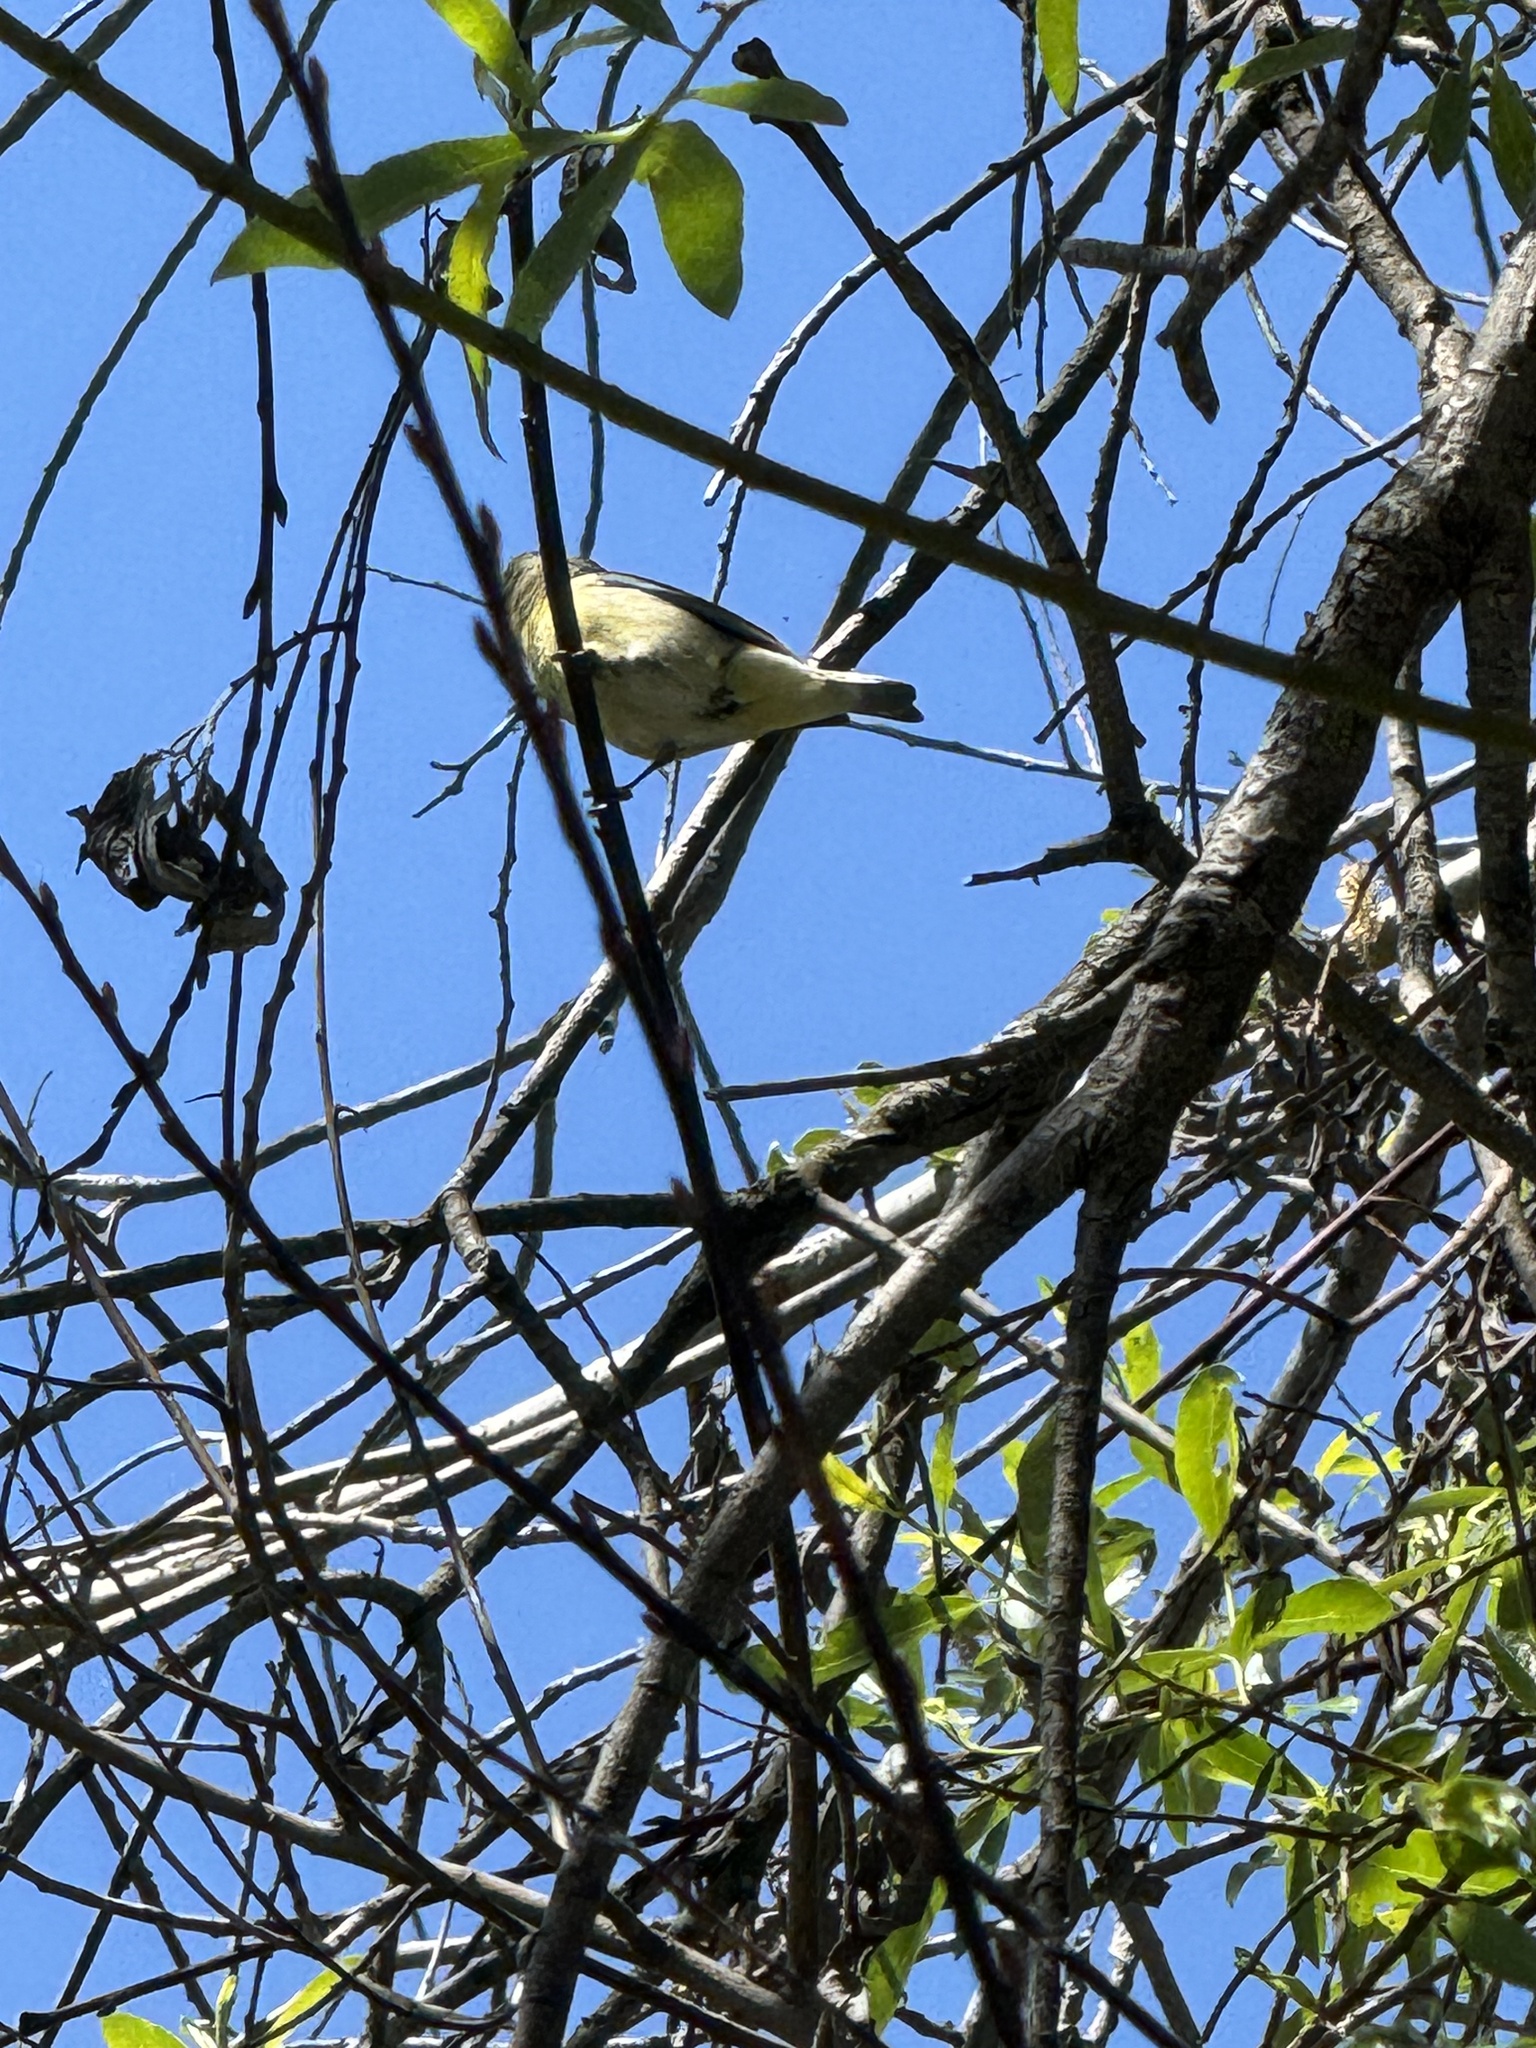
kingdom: Animalia
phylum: Chordata
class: Aves
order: Passeriformes
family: Fringillidae
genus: Spinus
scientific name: Spinus psaltria
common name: Lesser goldfinch
